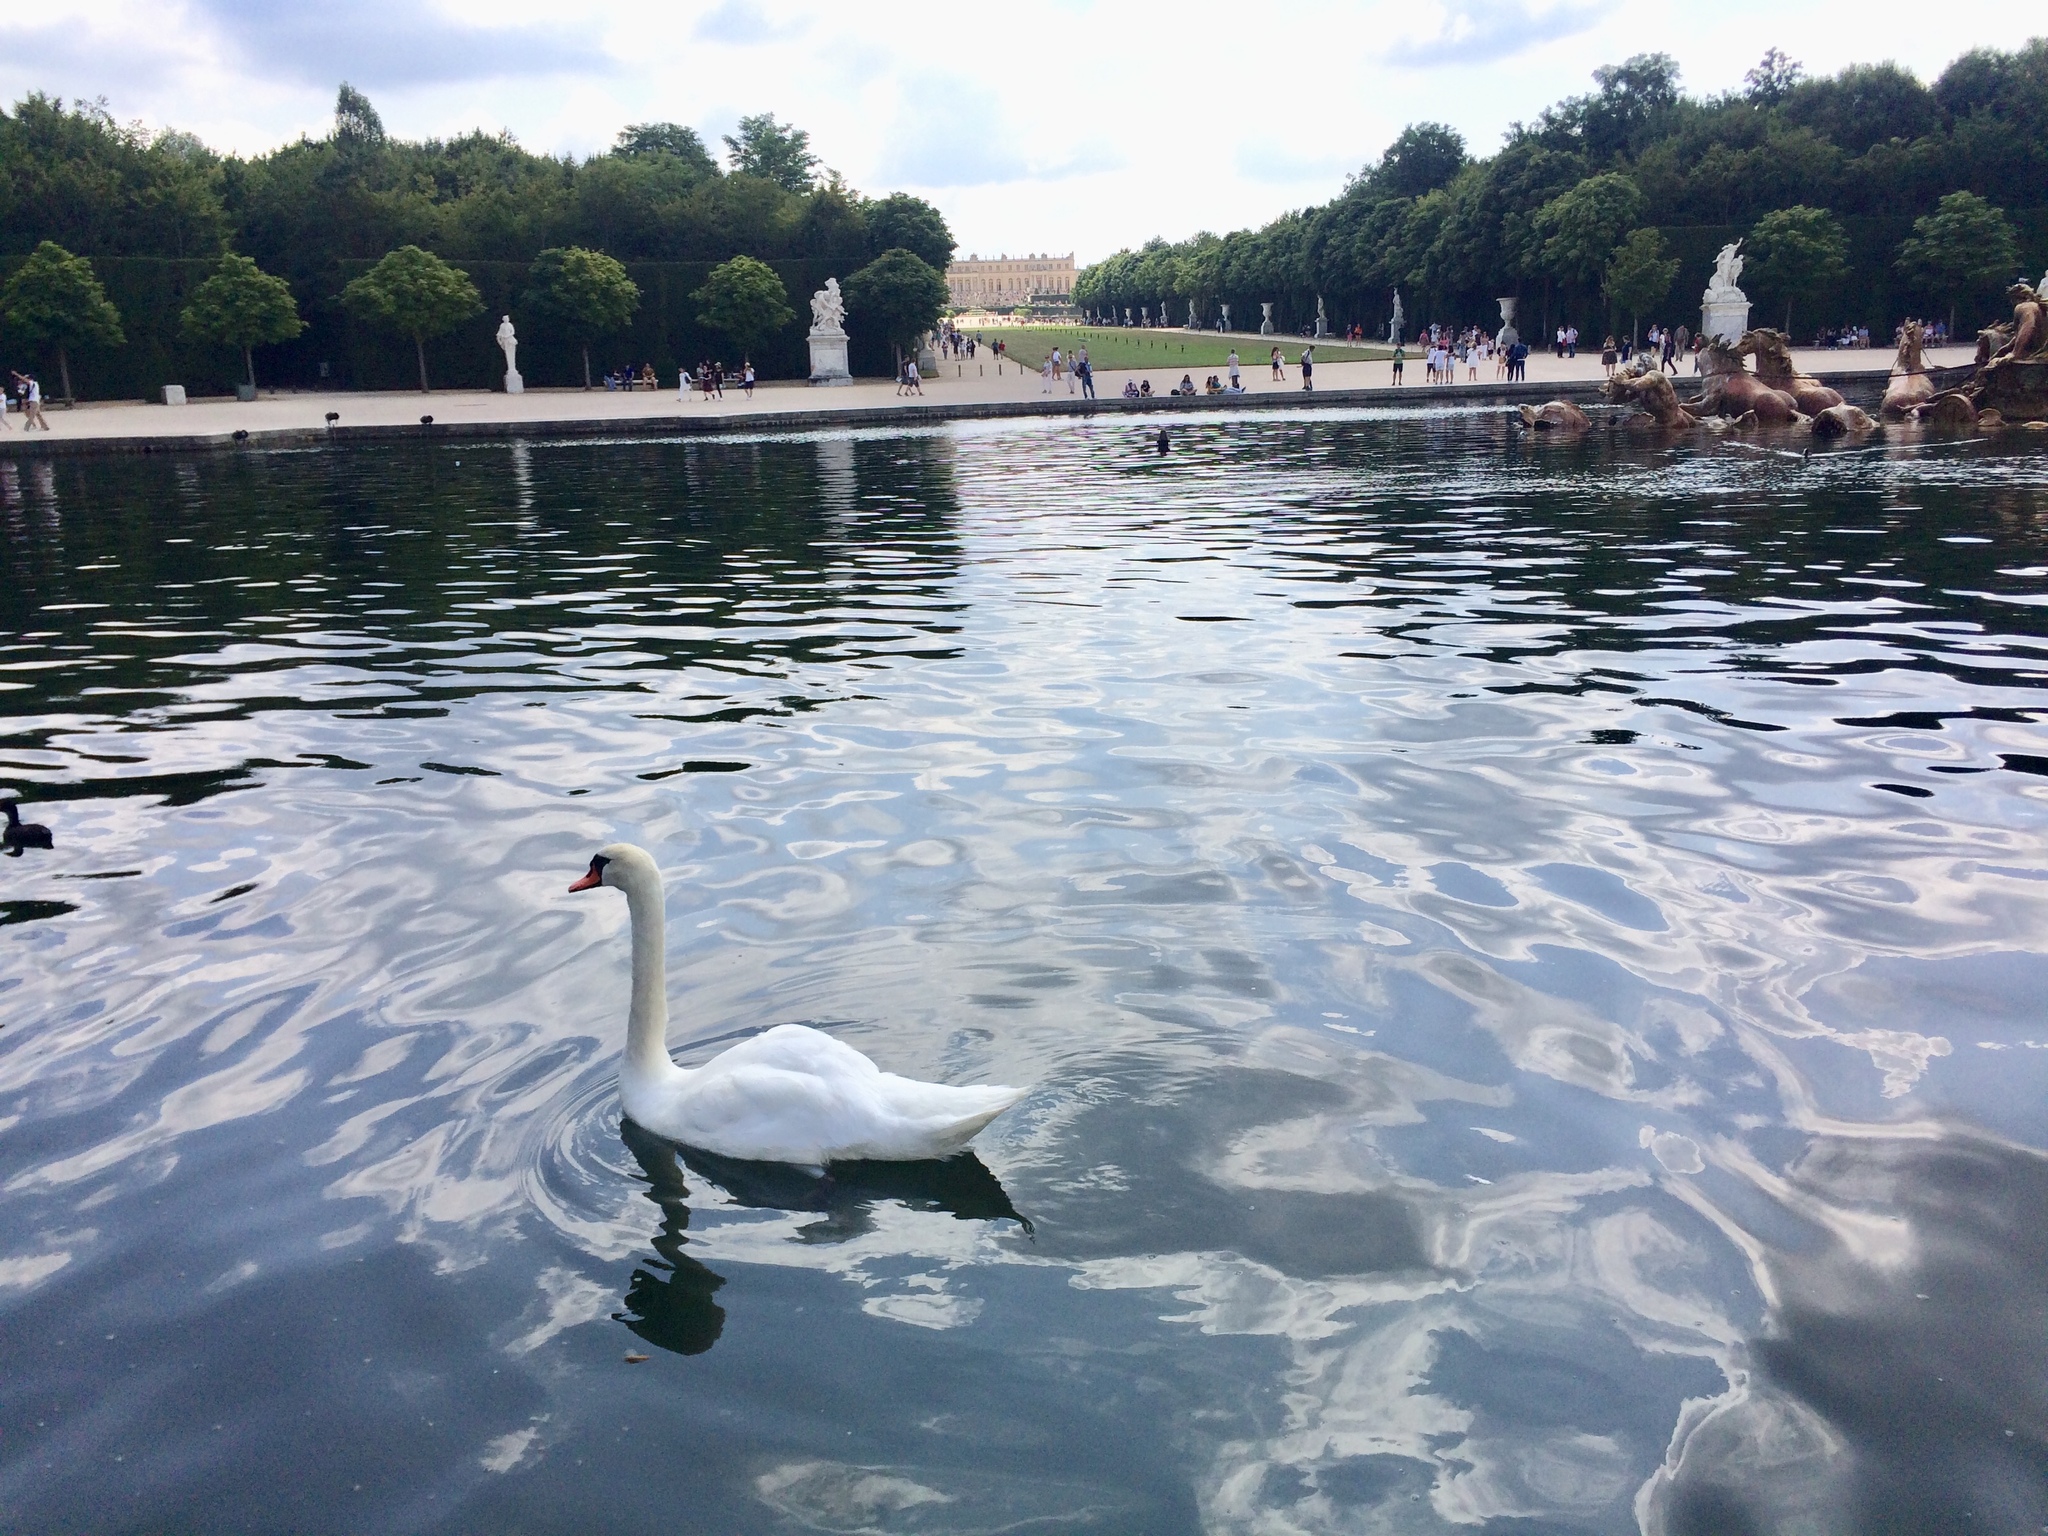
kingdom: Animalia
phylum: Chordata
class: Aves
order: Anseriformes
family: Anatidae
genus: Cygnus
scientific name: Cygnus olor
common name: Mute swan
